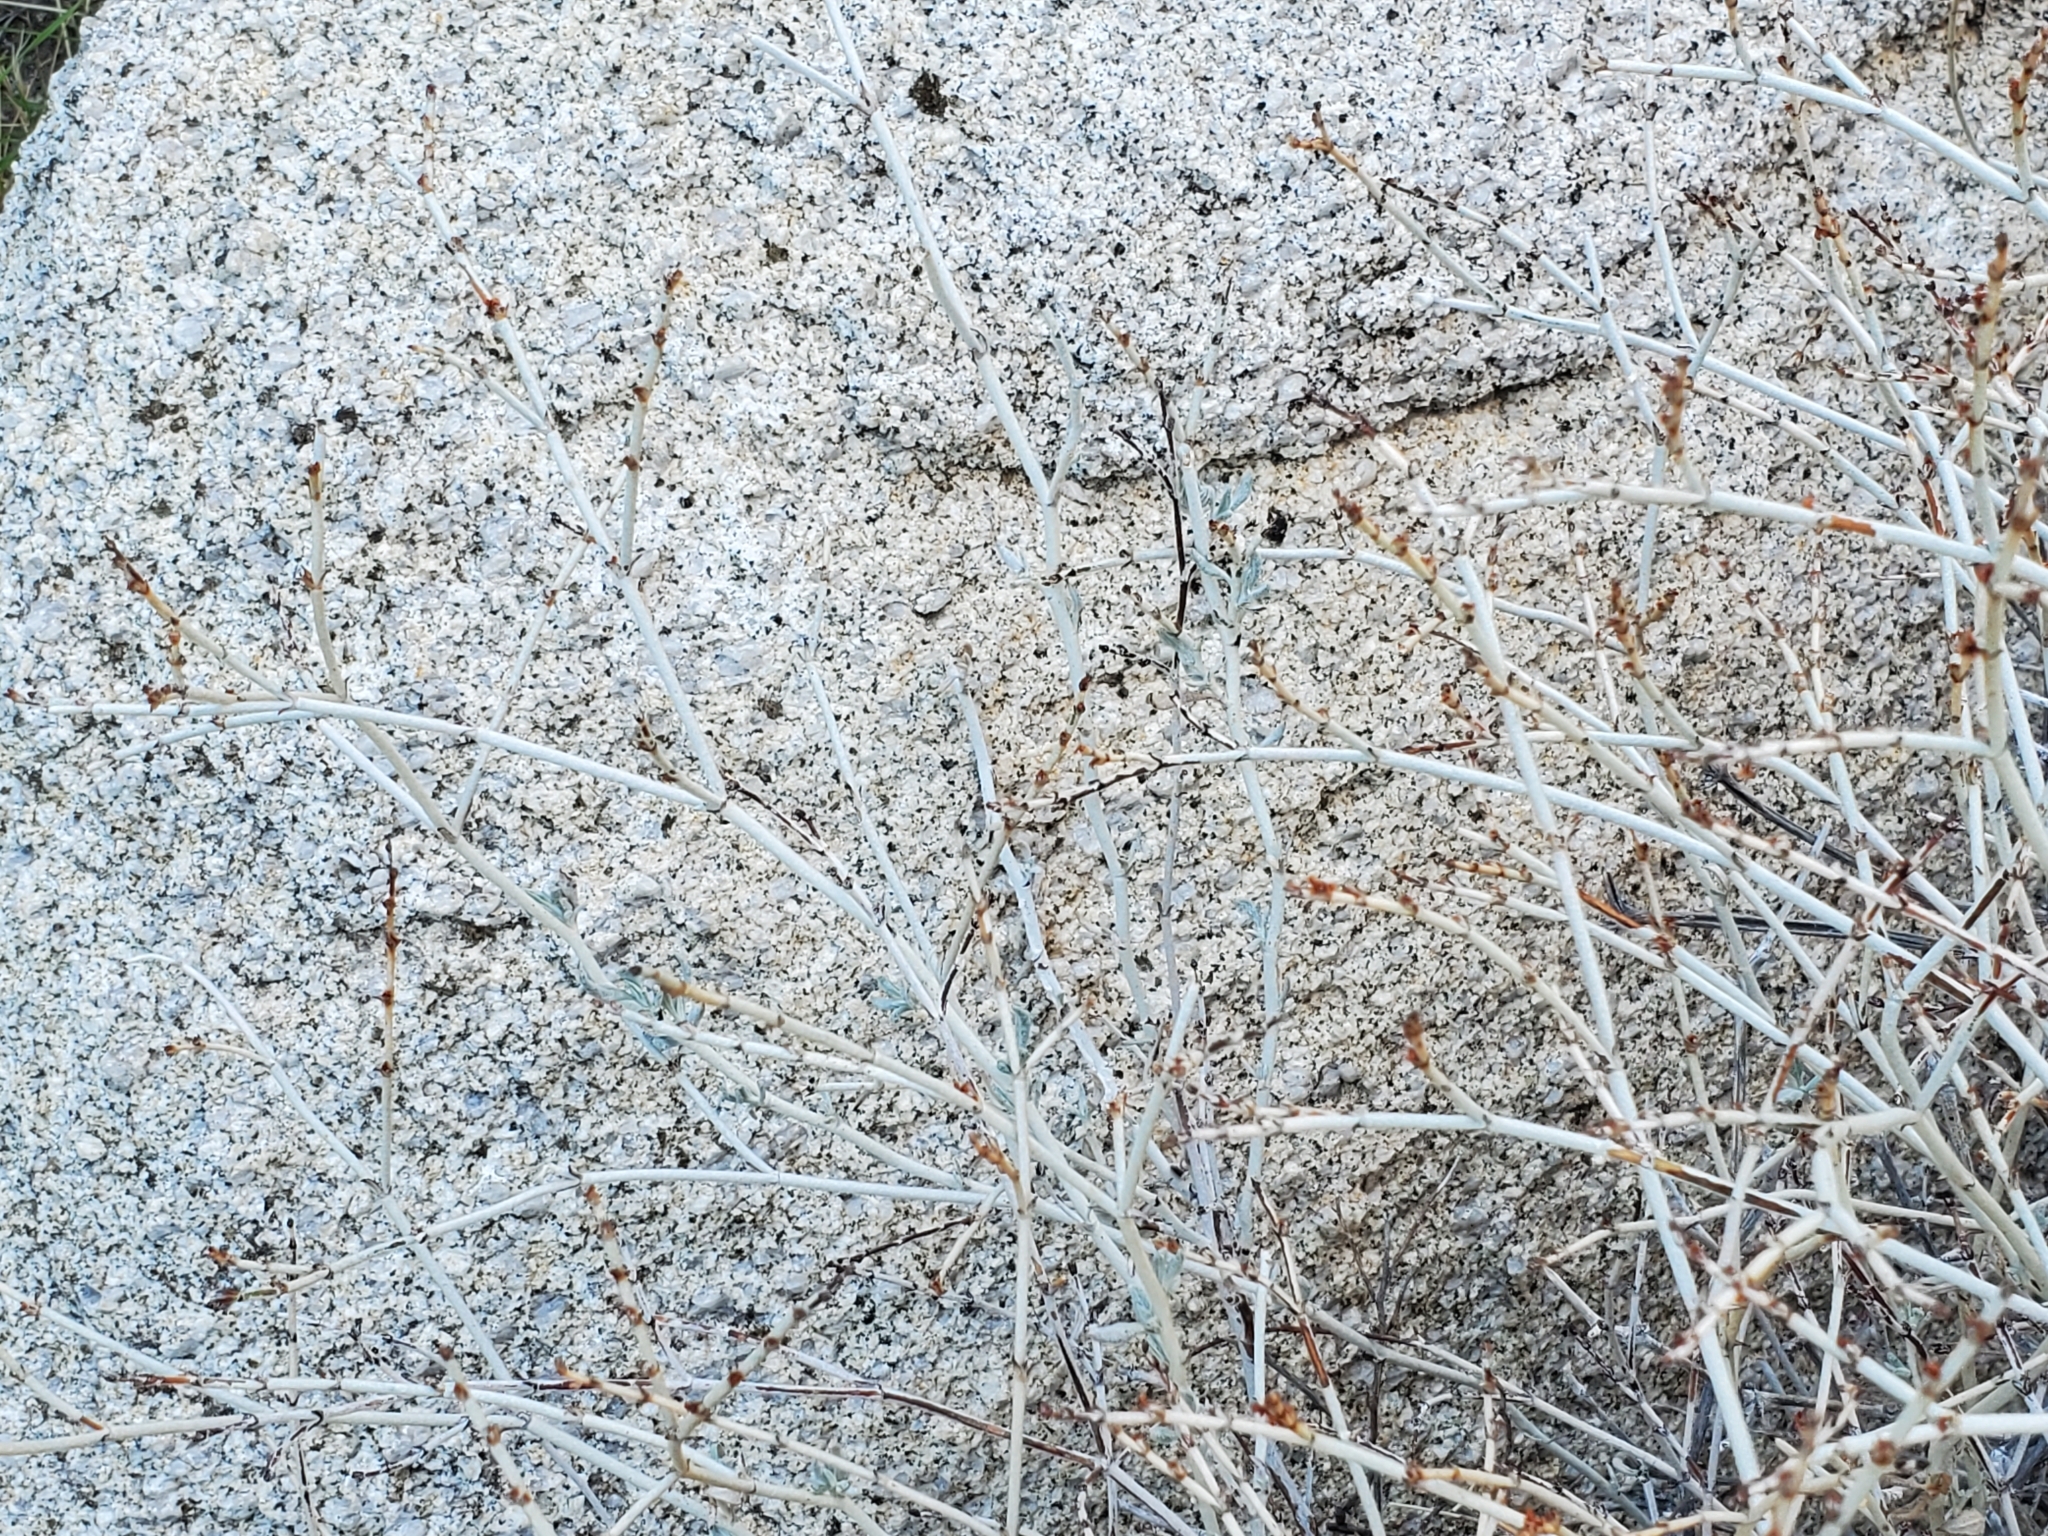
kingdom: Plantae
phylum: Tracheophyta
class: Magnoliopsida
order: Caryophyllales
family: Polygonaceae
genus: Eriogonum
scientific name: Eriogonum wrightii
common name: Bastard-sage
